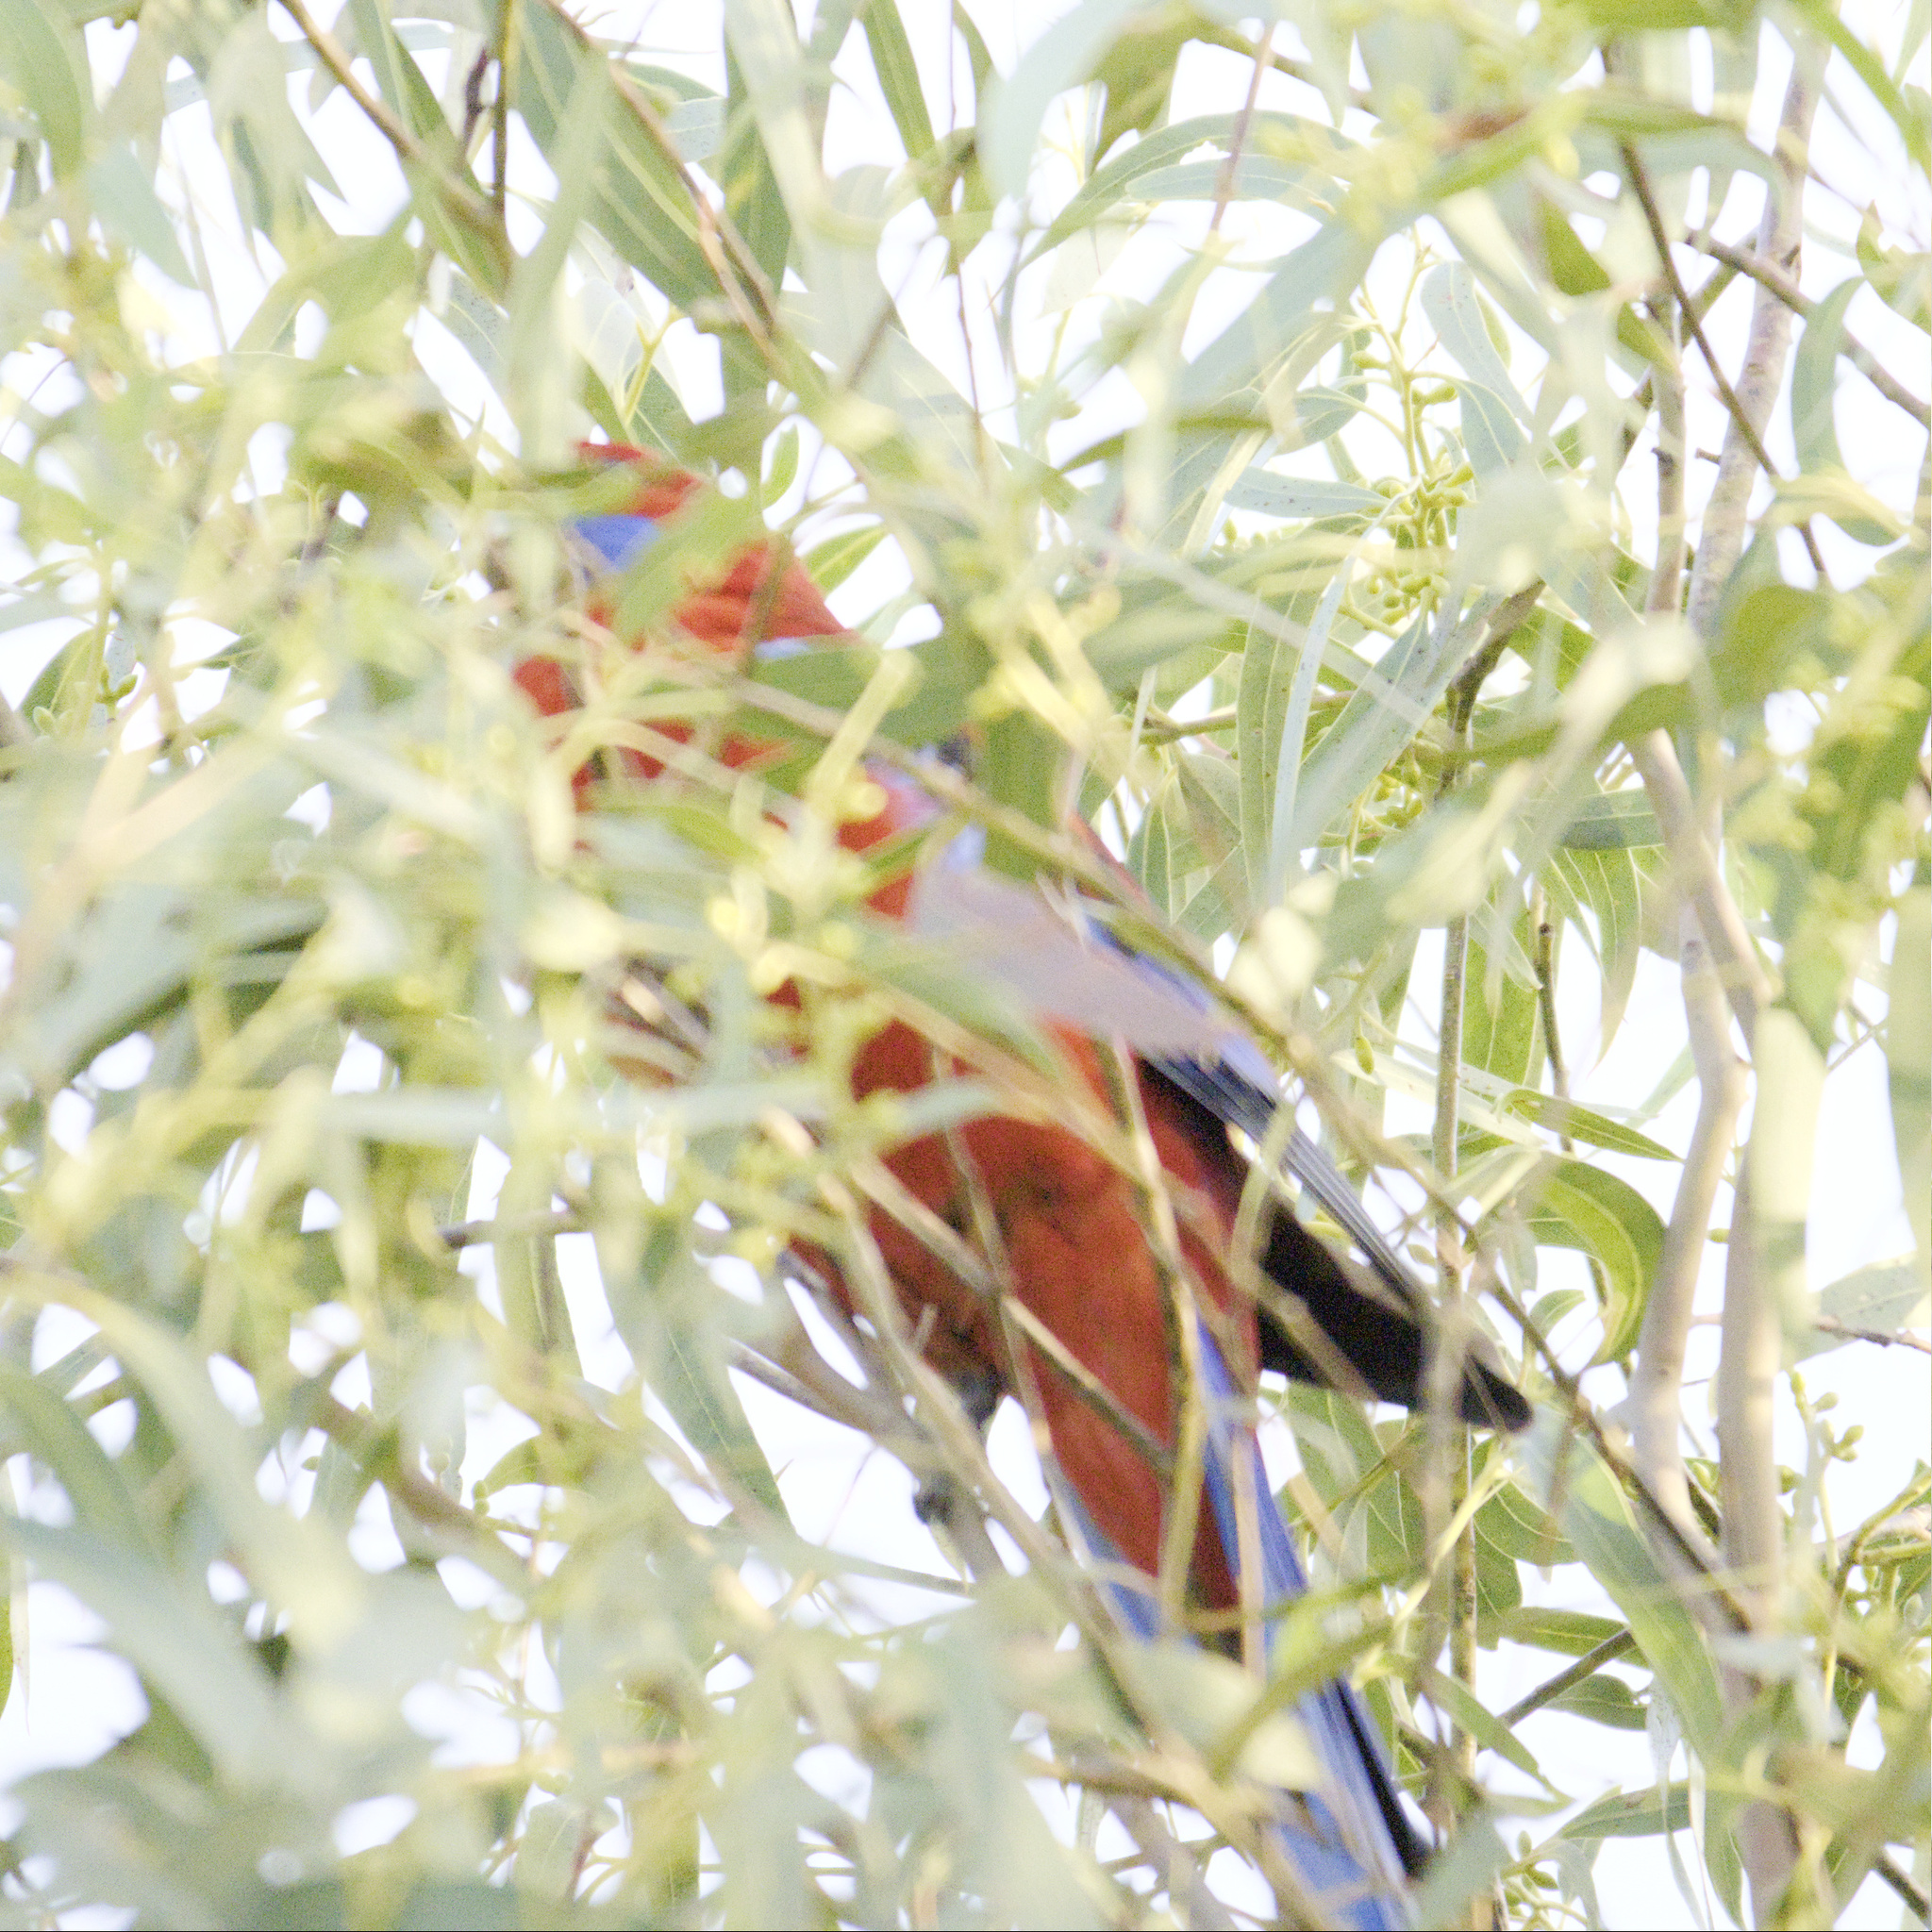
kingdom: Animalia
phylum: Chordata
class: Aves
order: Psittaciformes
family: Psittacidae
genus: Platycercus
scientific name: Platycercus elegans
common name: Crimson rosella
